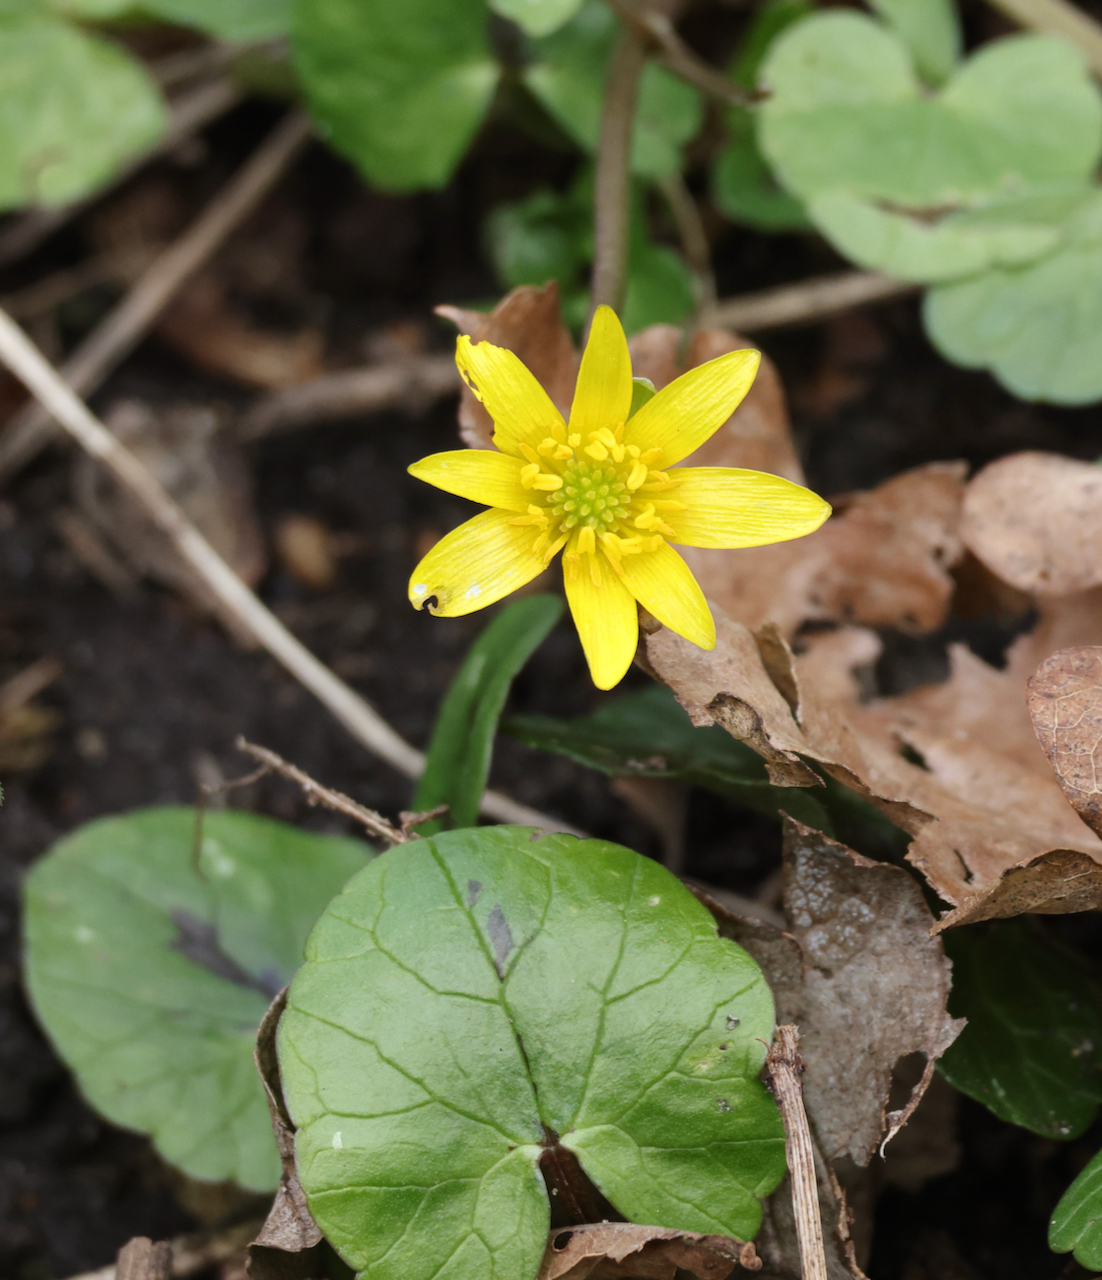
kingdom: Plantae
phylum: Tracheophyta
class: Magnoliopsida
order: Ranunculales
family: Ranunculaceae
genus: Ficaria
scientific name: Ficaria verna
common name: Lesser celandine
